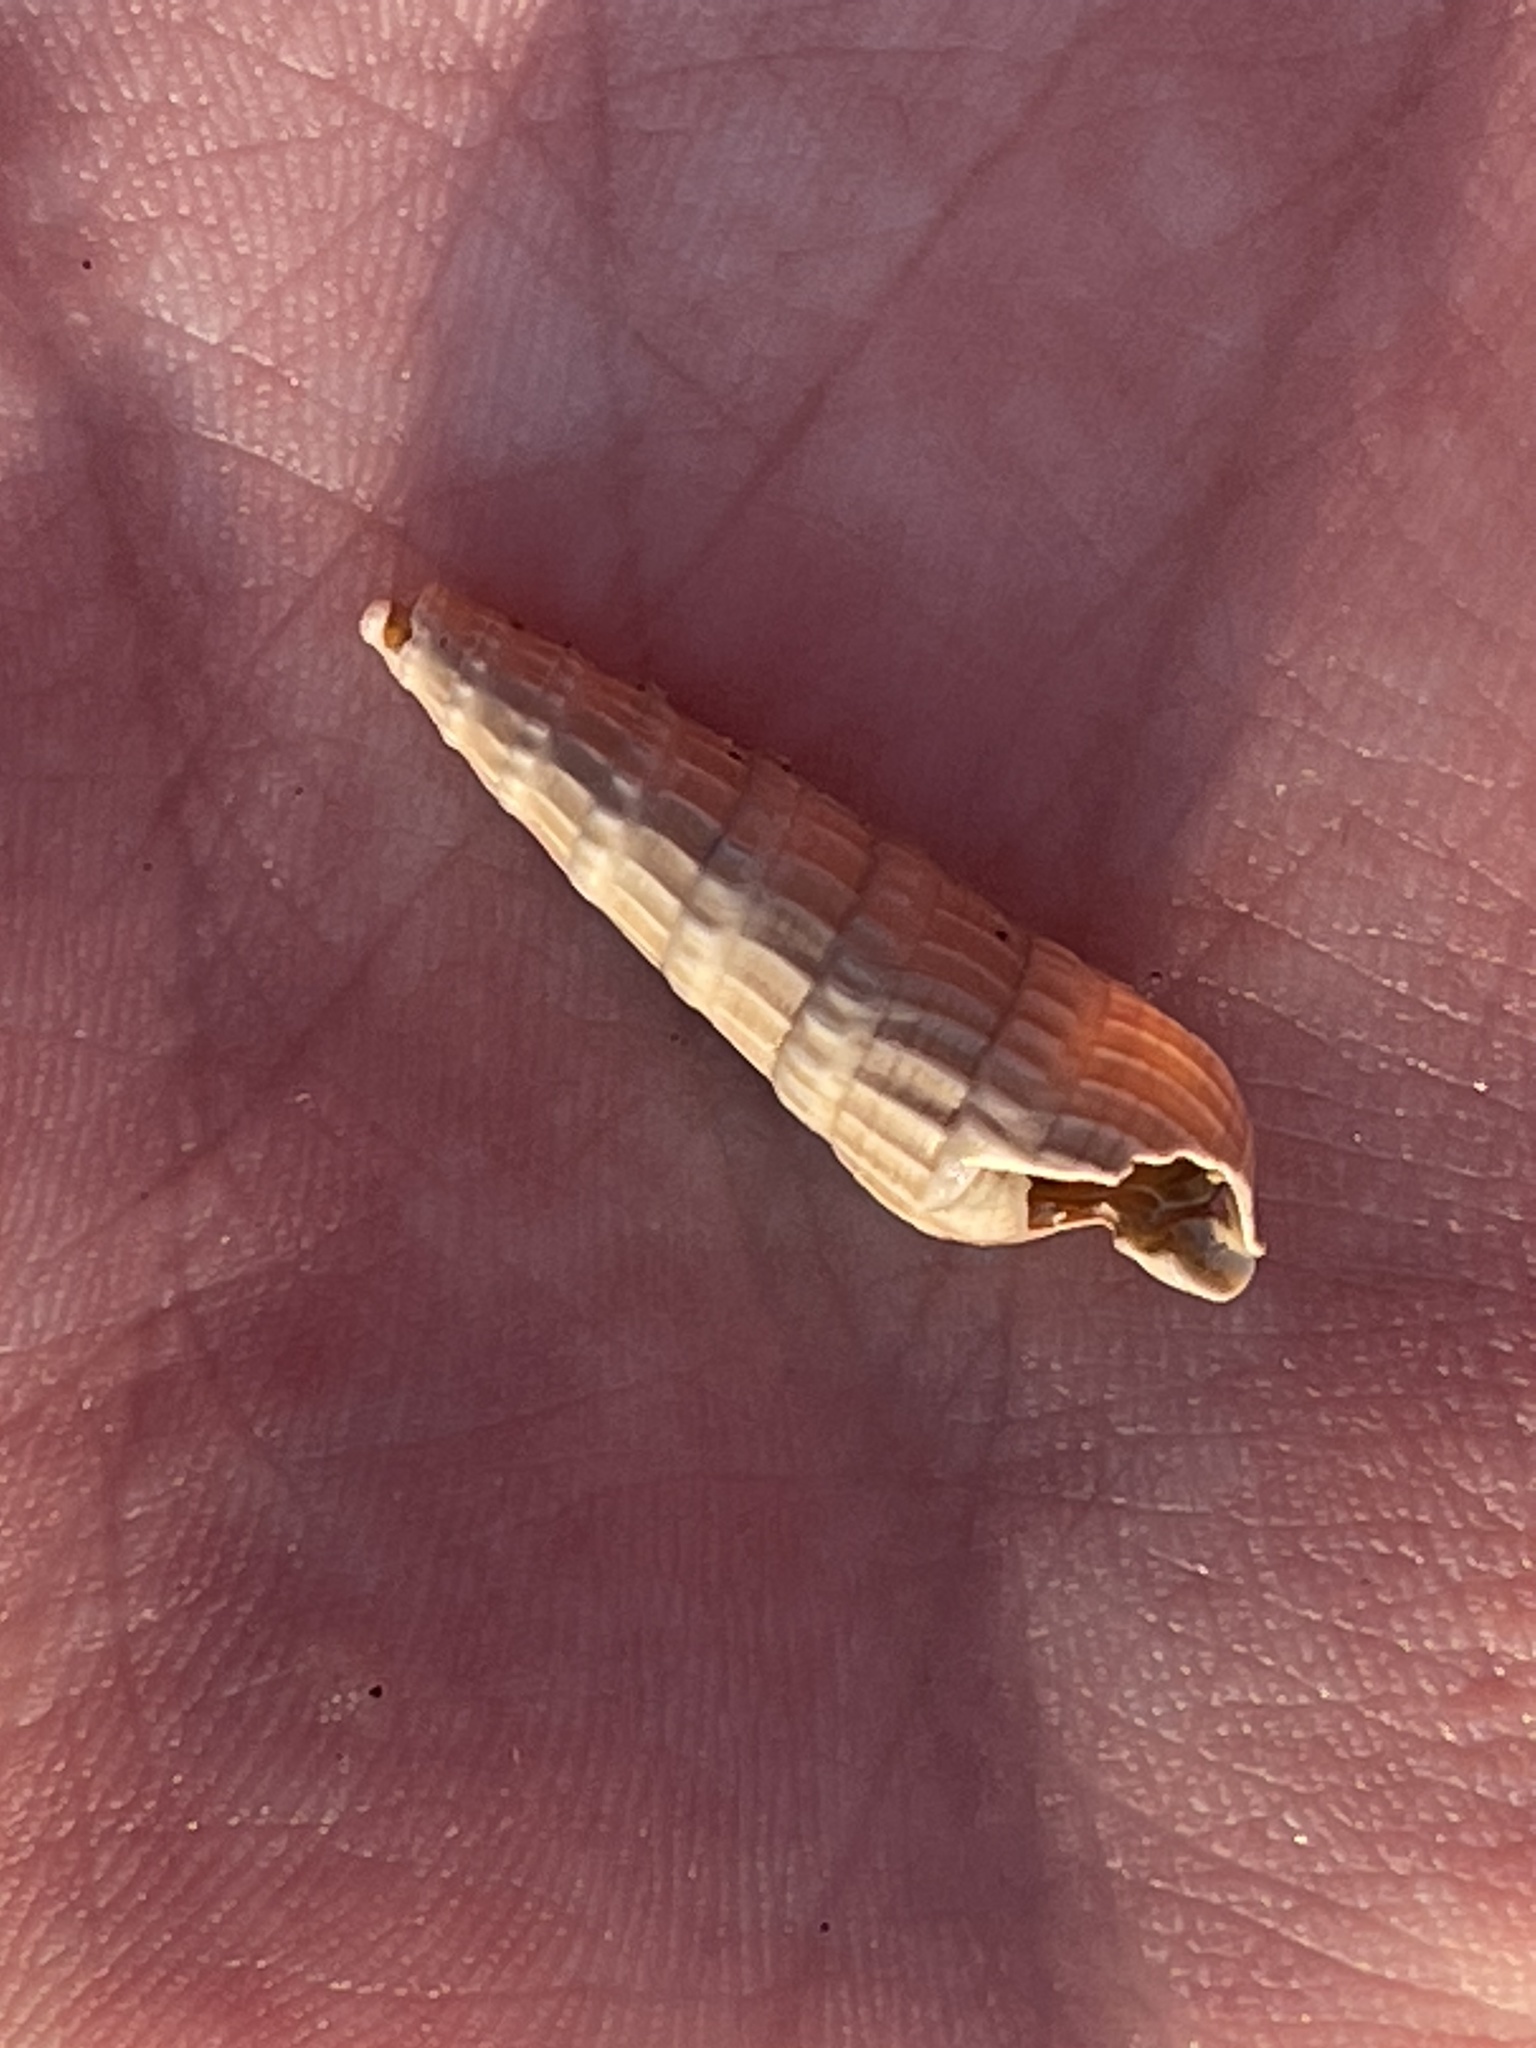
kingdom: Animalia
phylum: Mollusca
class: Gastropoda
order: Neogastropoda
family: Terebridae
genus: Neoterebra
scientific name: Neoterebra dislocata
